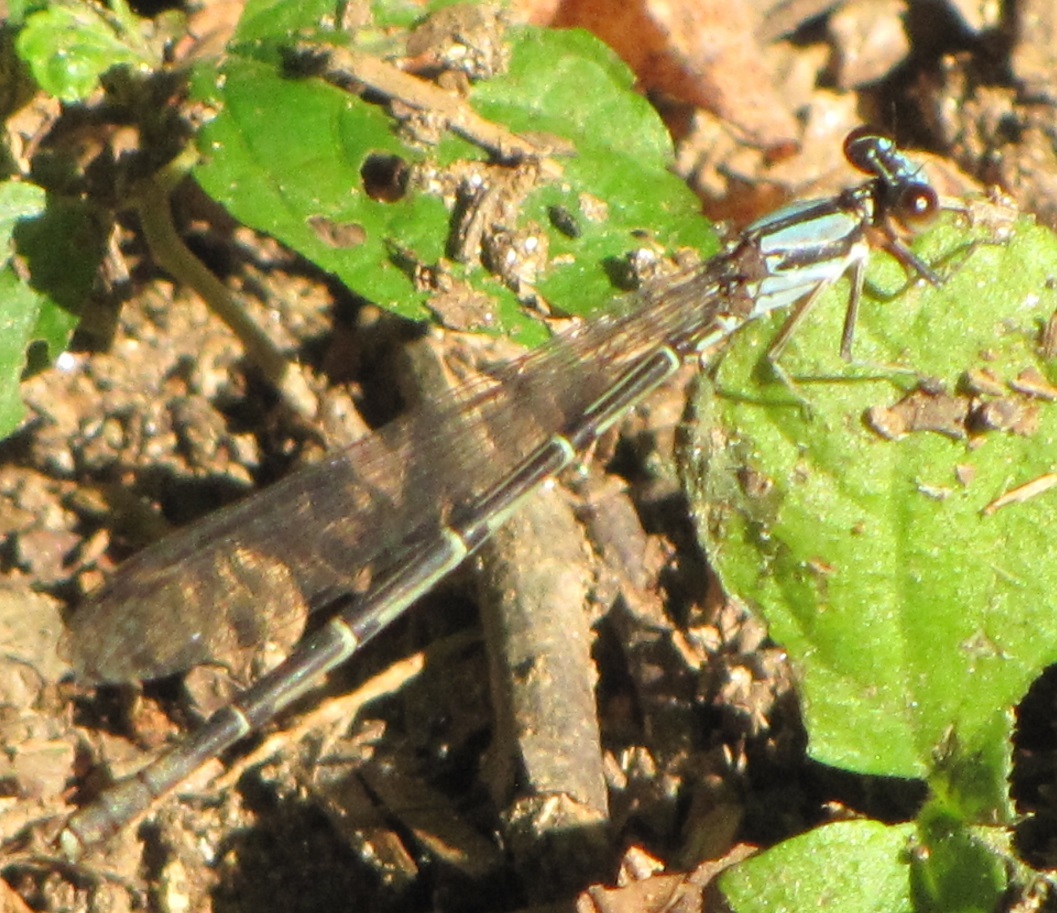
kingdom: Animalia
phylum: Arthropoda
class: Insecta
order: Odonata
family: Coenagrionidae
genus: Argia
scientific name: Argia tibialis
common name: Blue-tipped dancer
